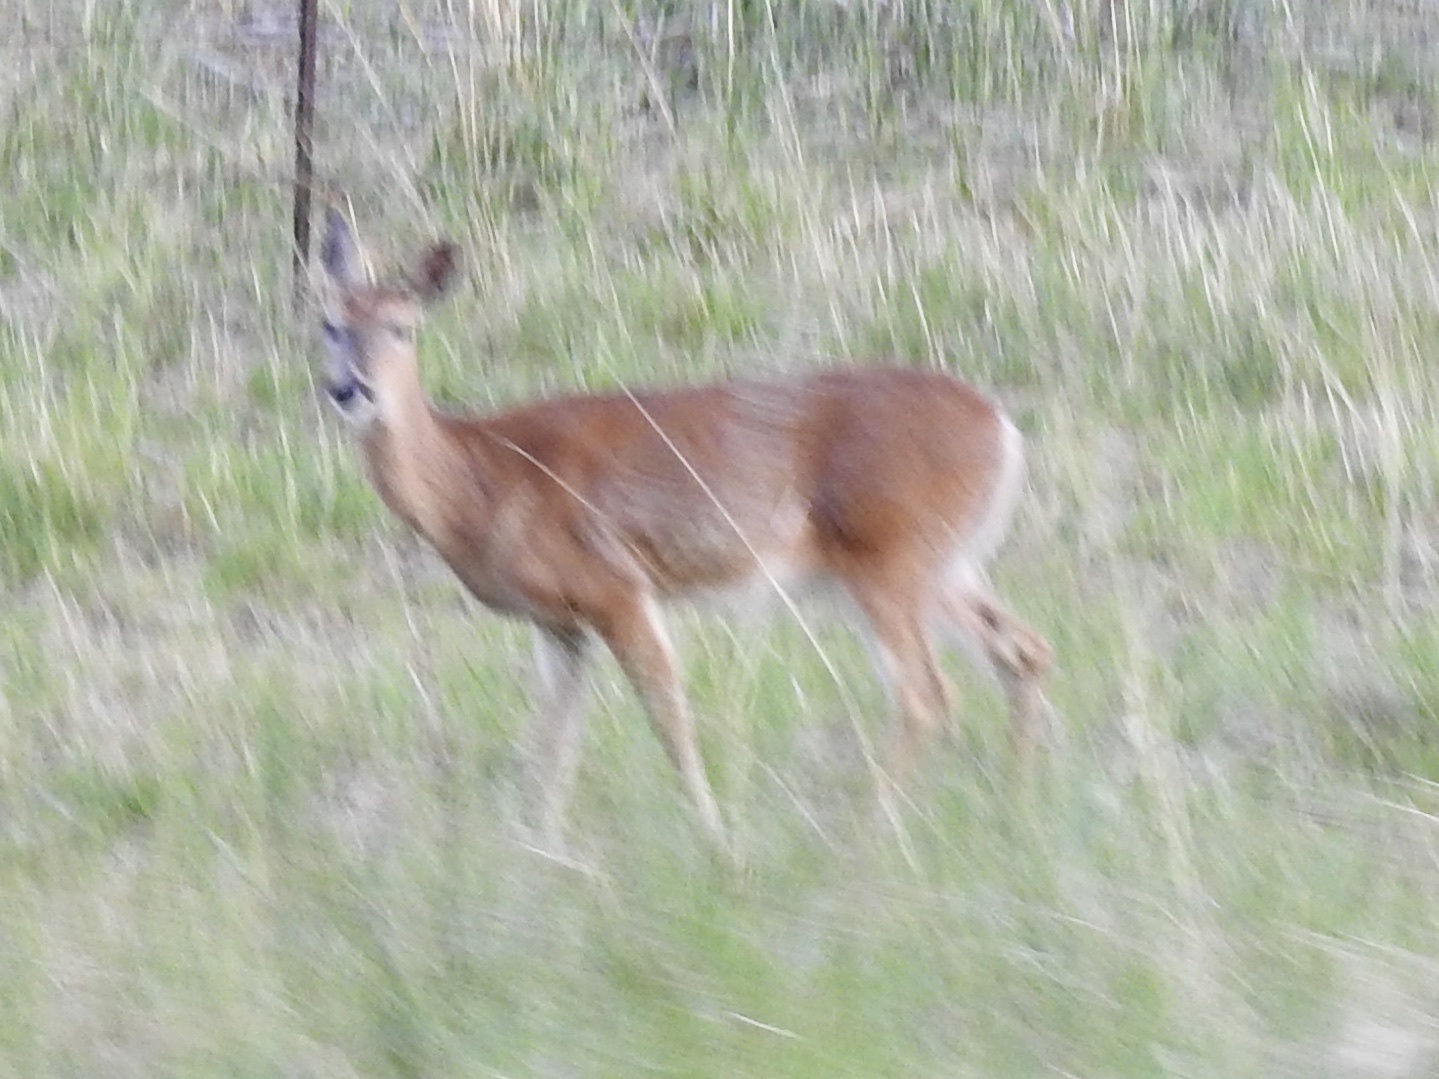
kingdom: Animalia
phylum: Chordata
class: Mammalia
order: Artiodactyla
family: Cervidae
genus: Odocoileus
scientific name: Odocoileus virginianus
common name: White-tailed deer
